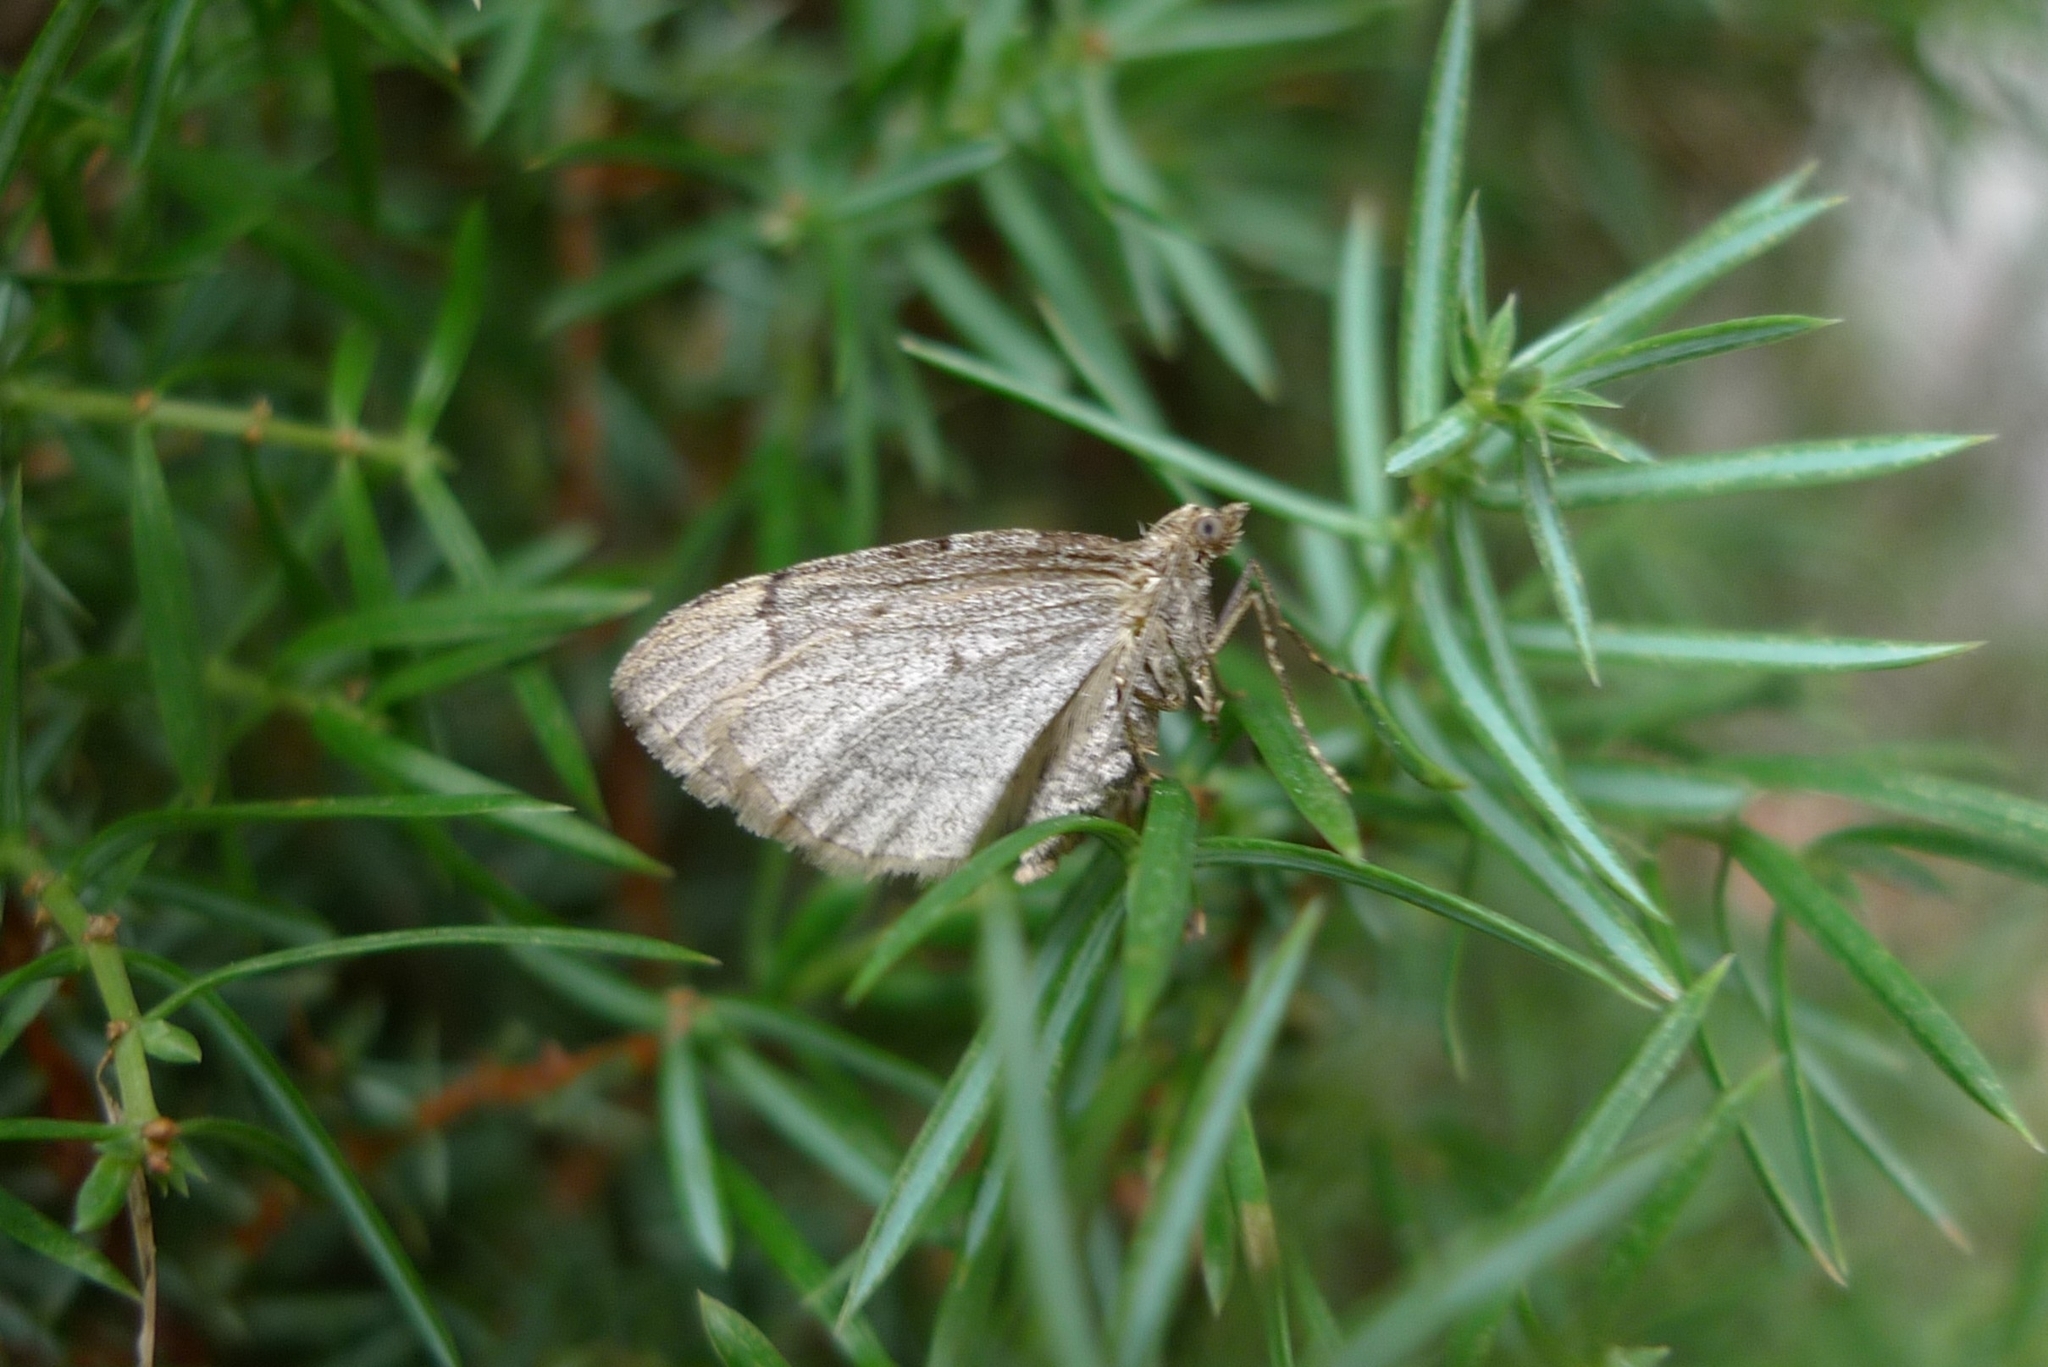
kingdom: Animalia
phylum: Arthropoda
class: Insecta
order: Lepidoptera
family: Geometridae
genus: Thera
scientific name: Thera juniperata
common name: Juniper carpet
